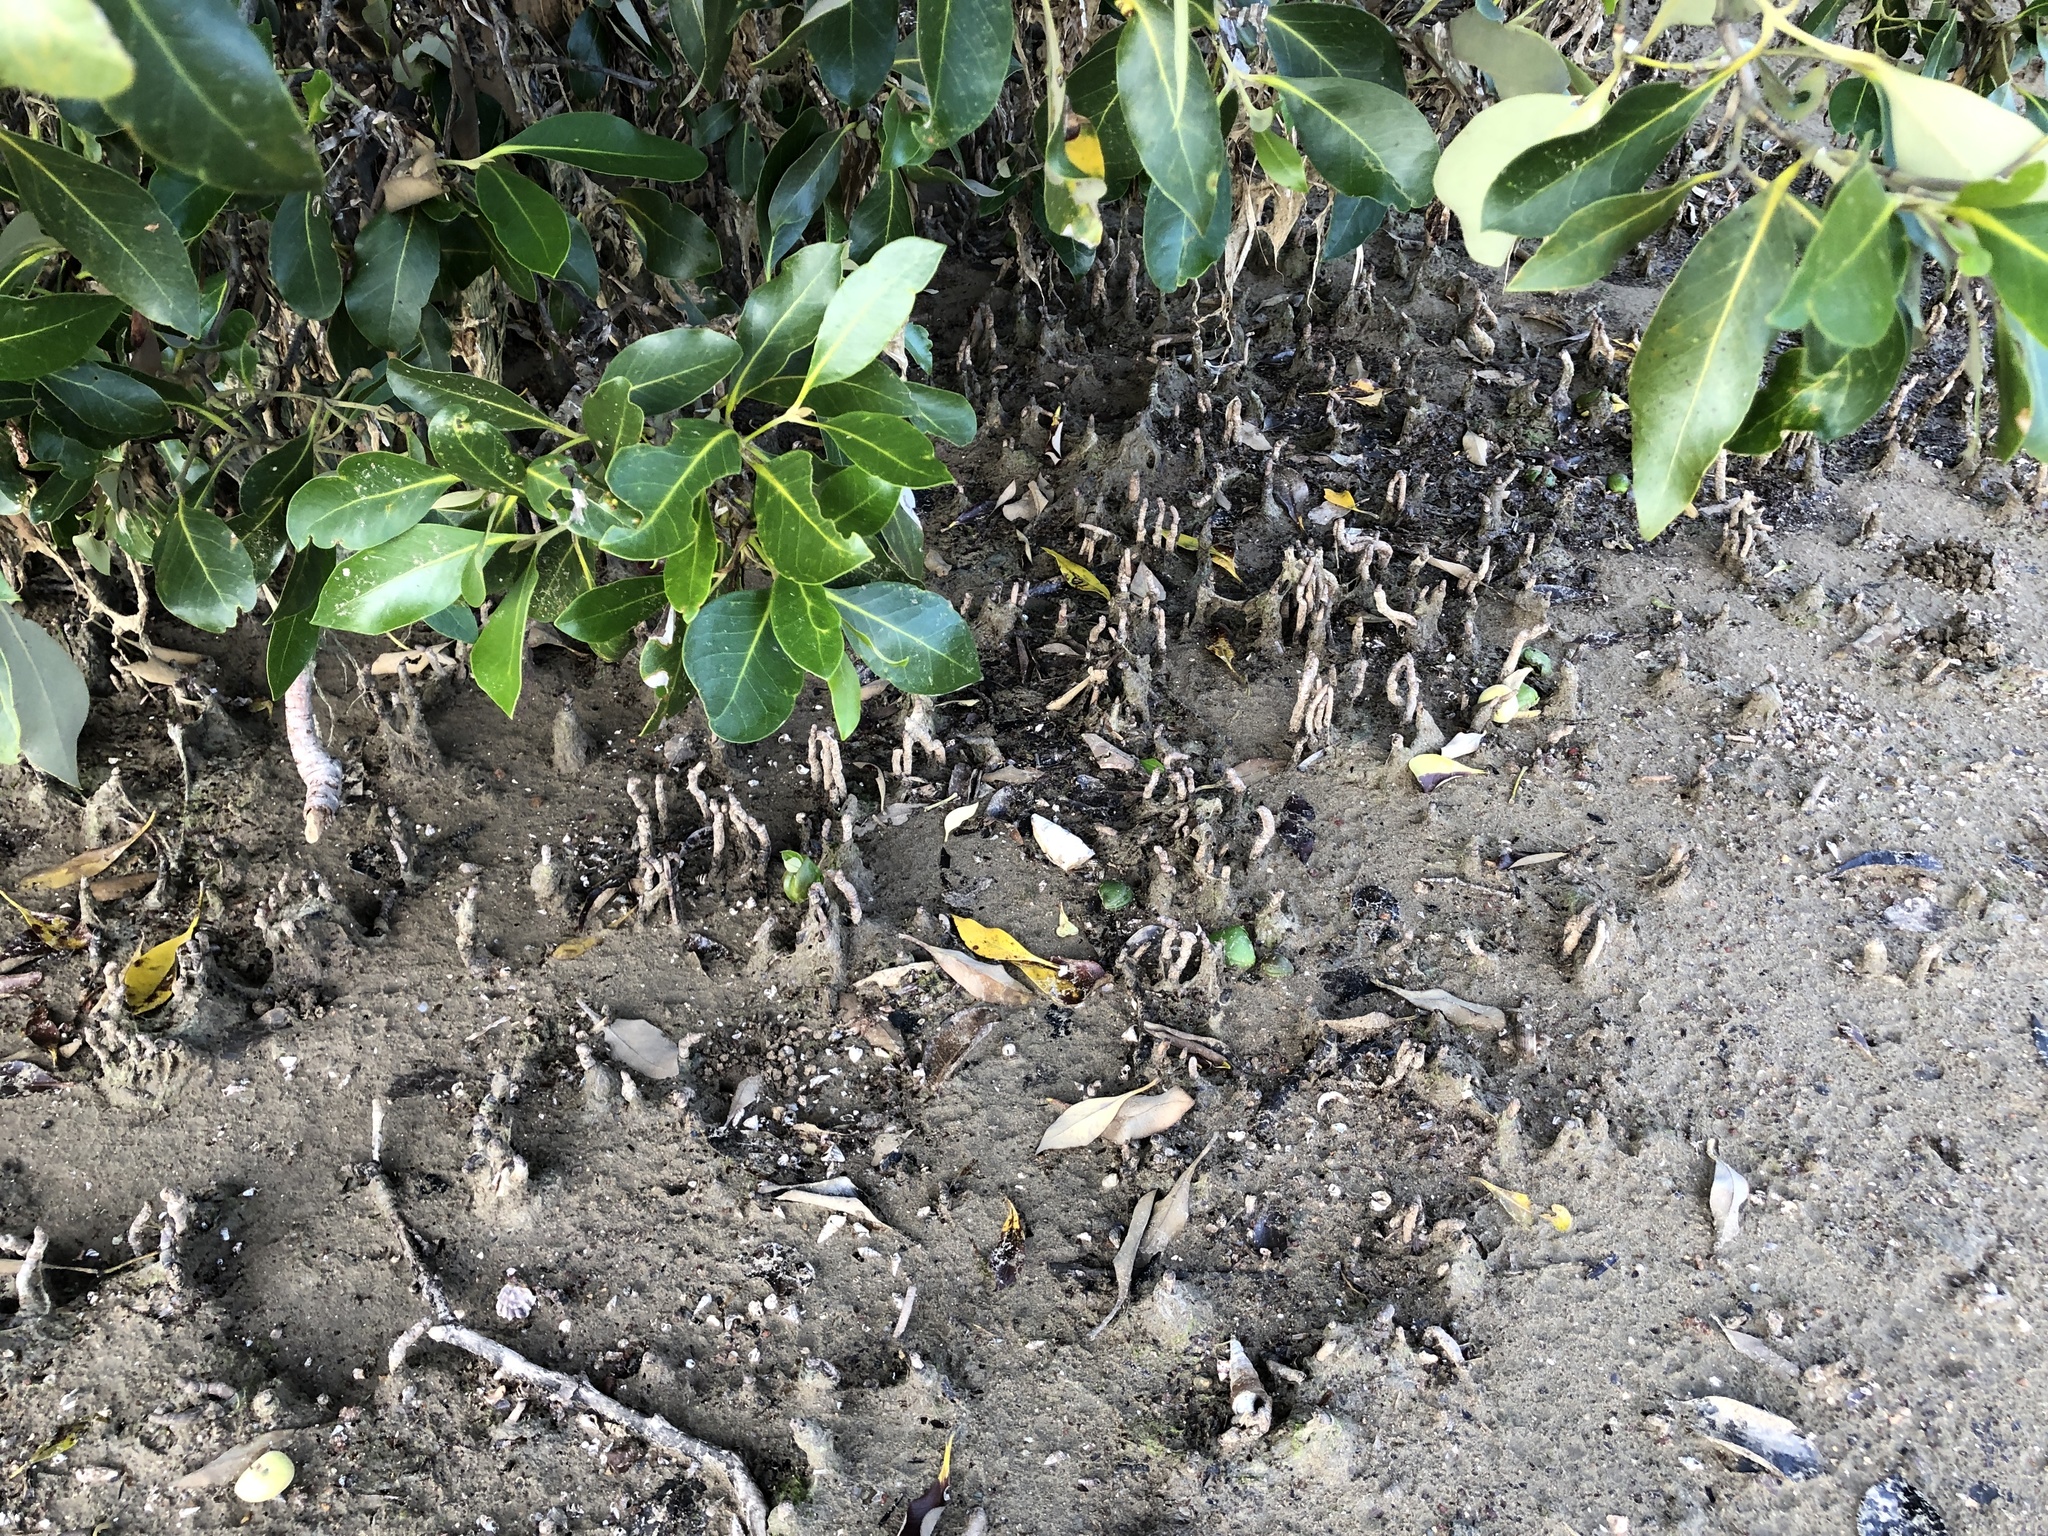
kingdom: Plantae
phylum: Tracheophyta
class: Magnoliopsida
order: Lamiales
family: Acanthaceae
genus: Avicennia
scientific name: Avicennia marina
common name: Gray mangrove
